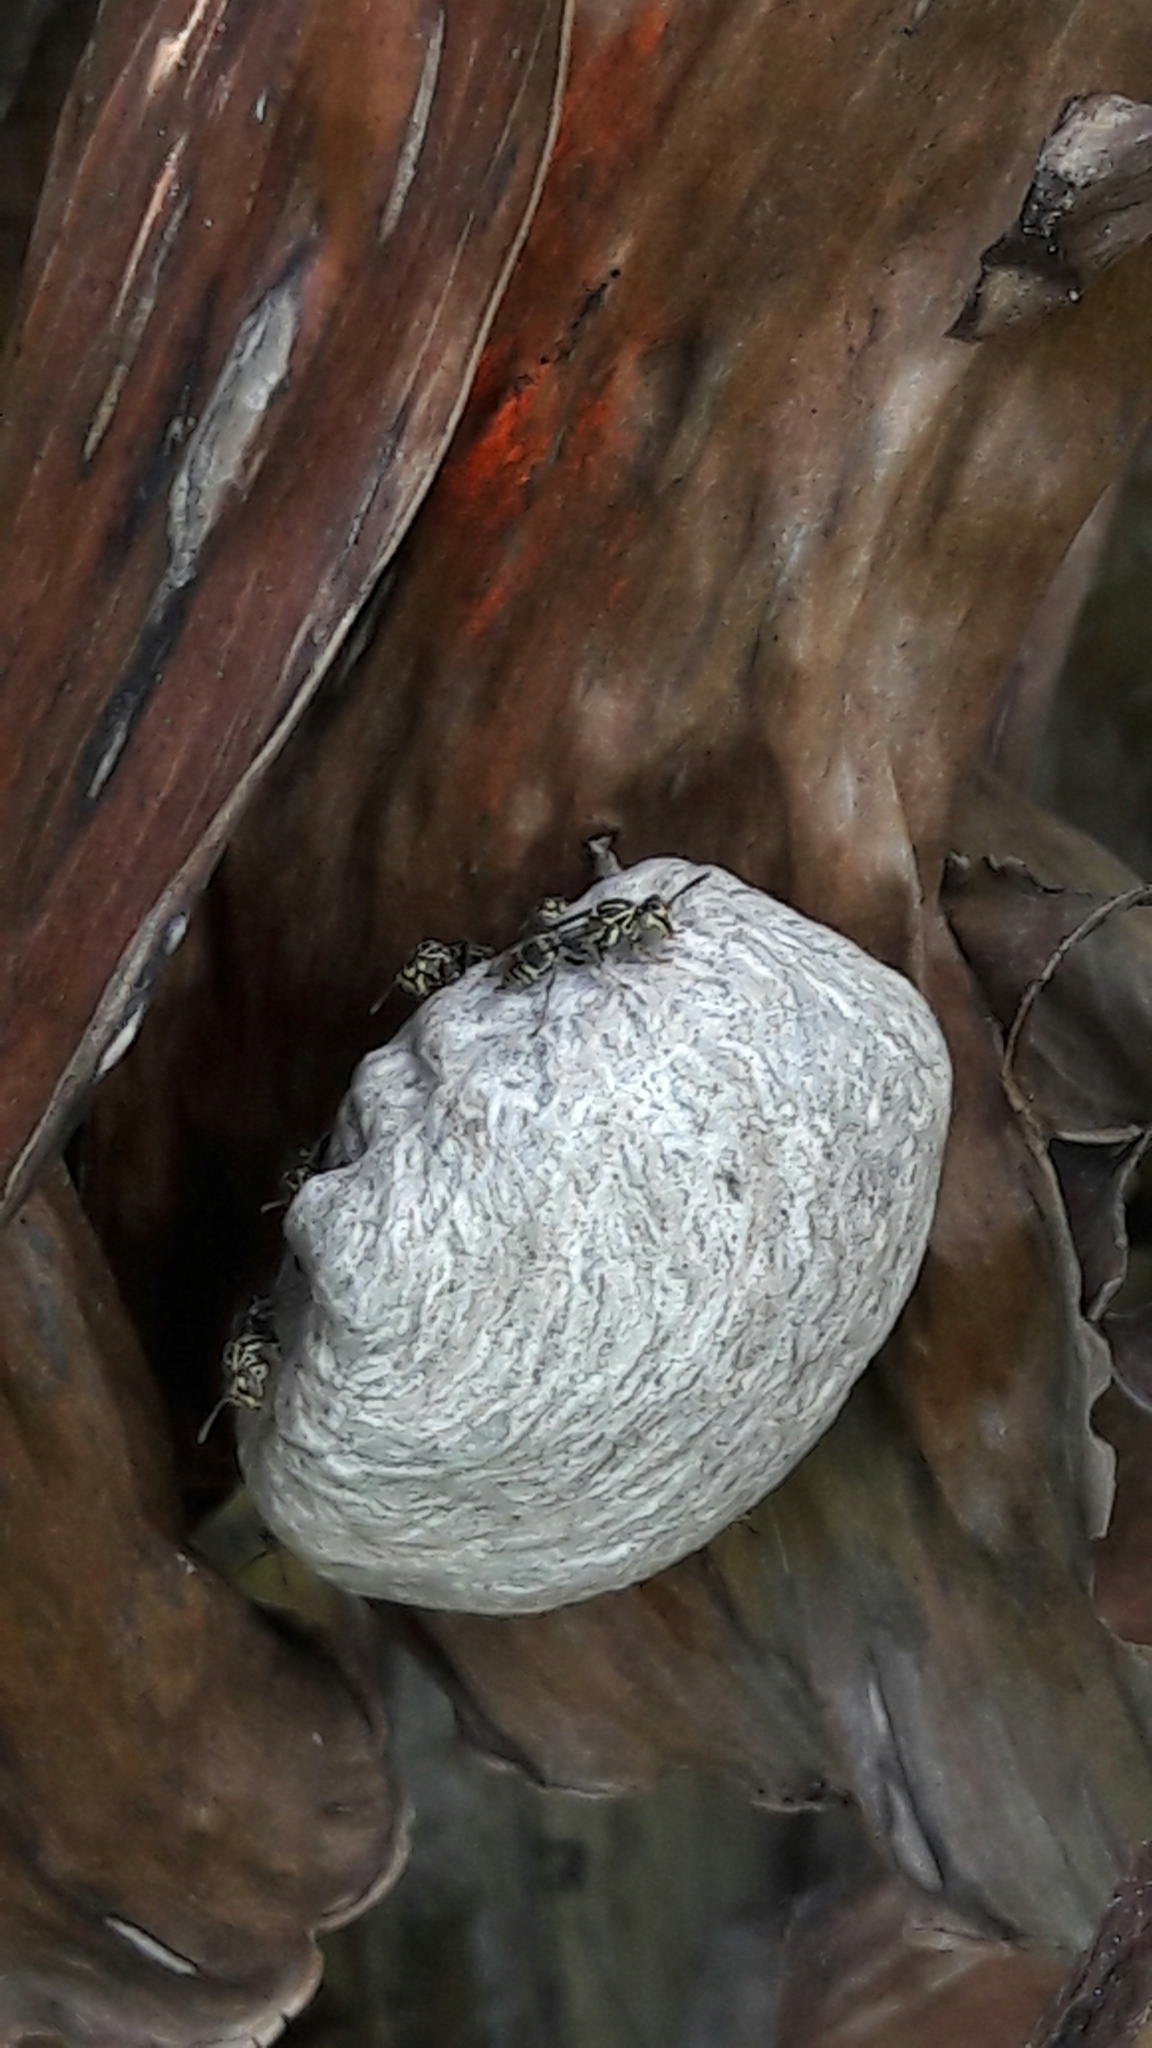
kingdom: Animalia
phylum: Arthropoda
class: Insecta
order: Hymenoptera
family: Vespidae
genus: Protopolybia
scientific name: Protopolybia exigua
